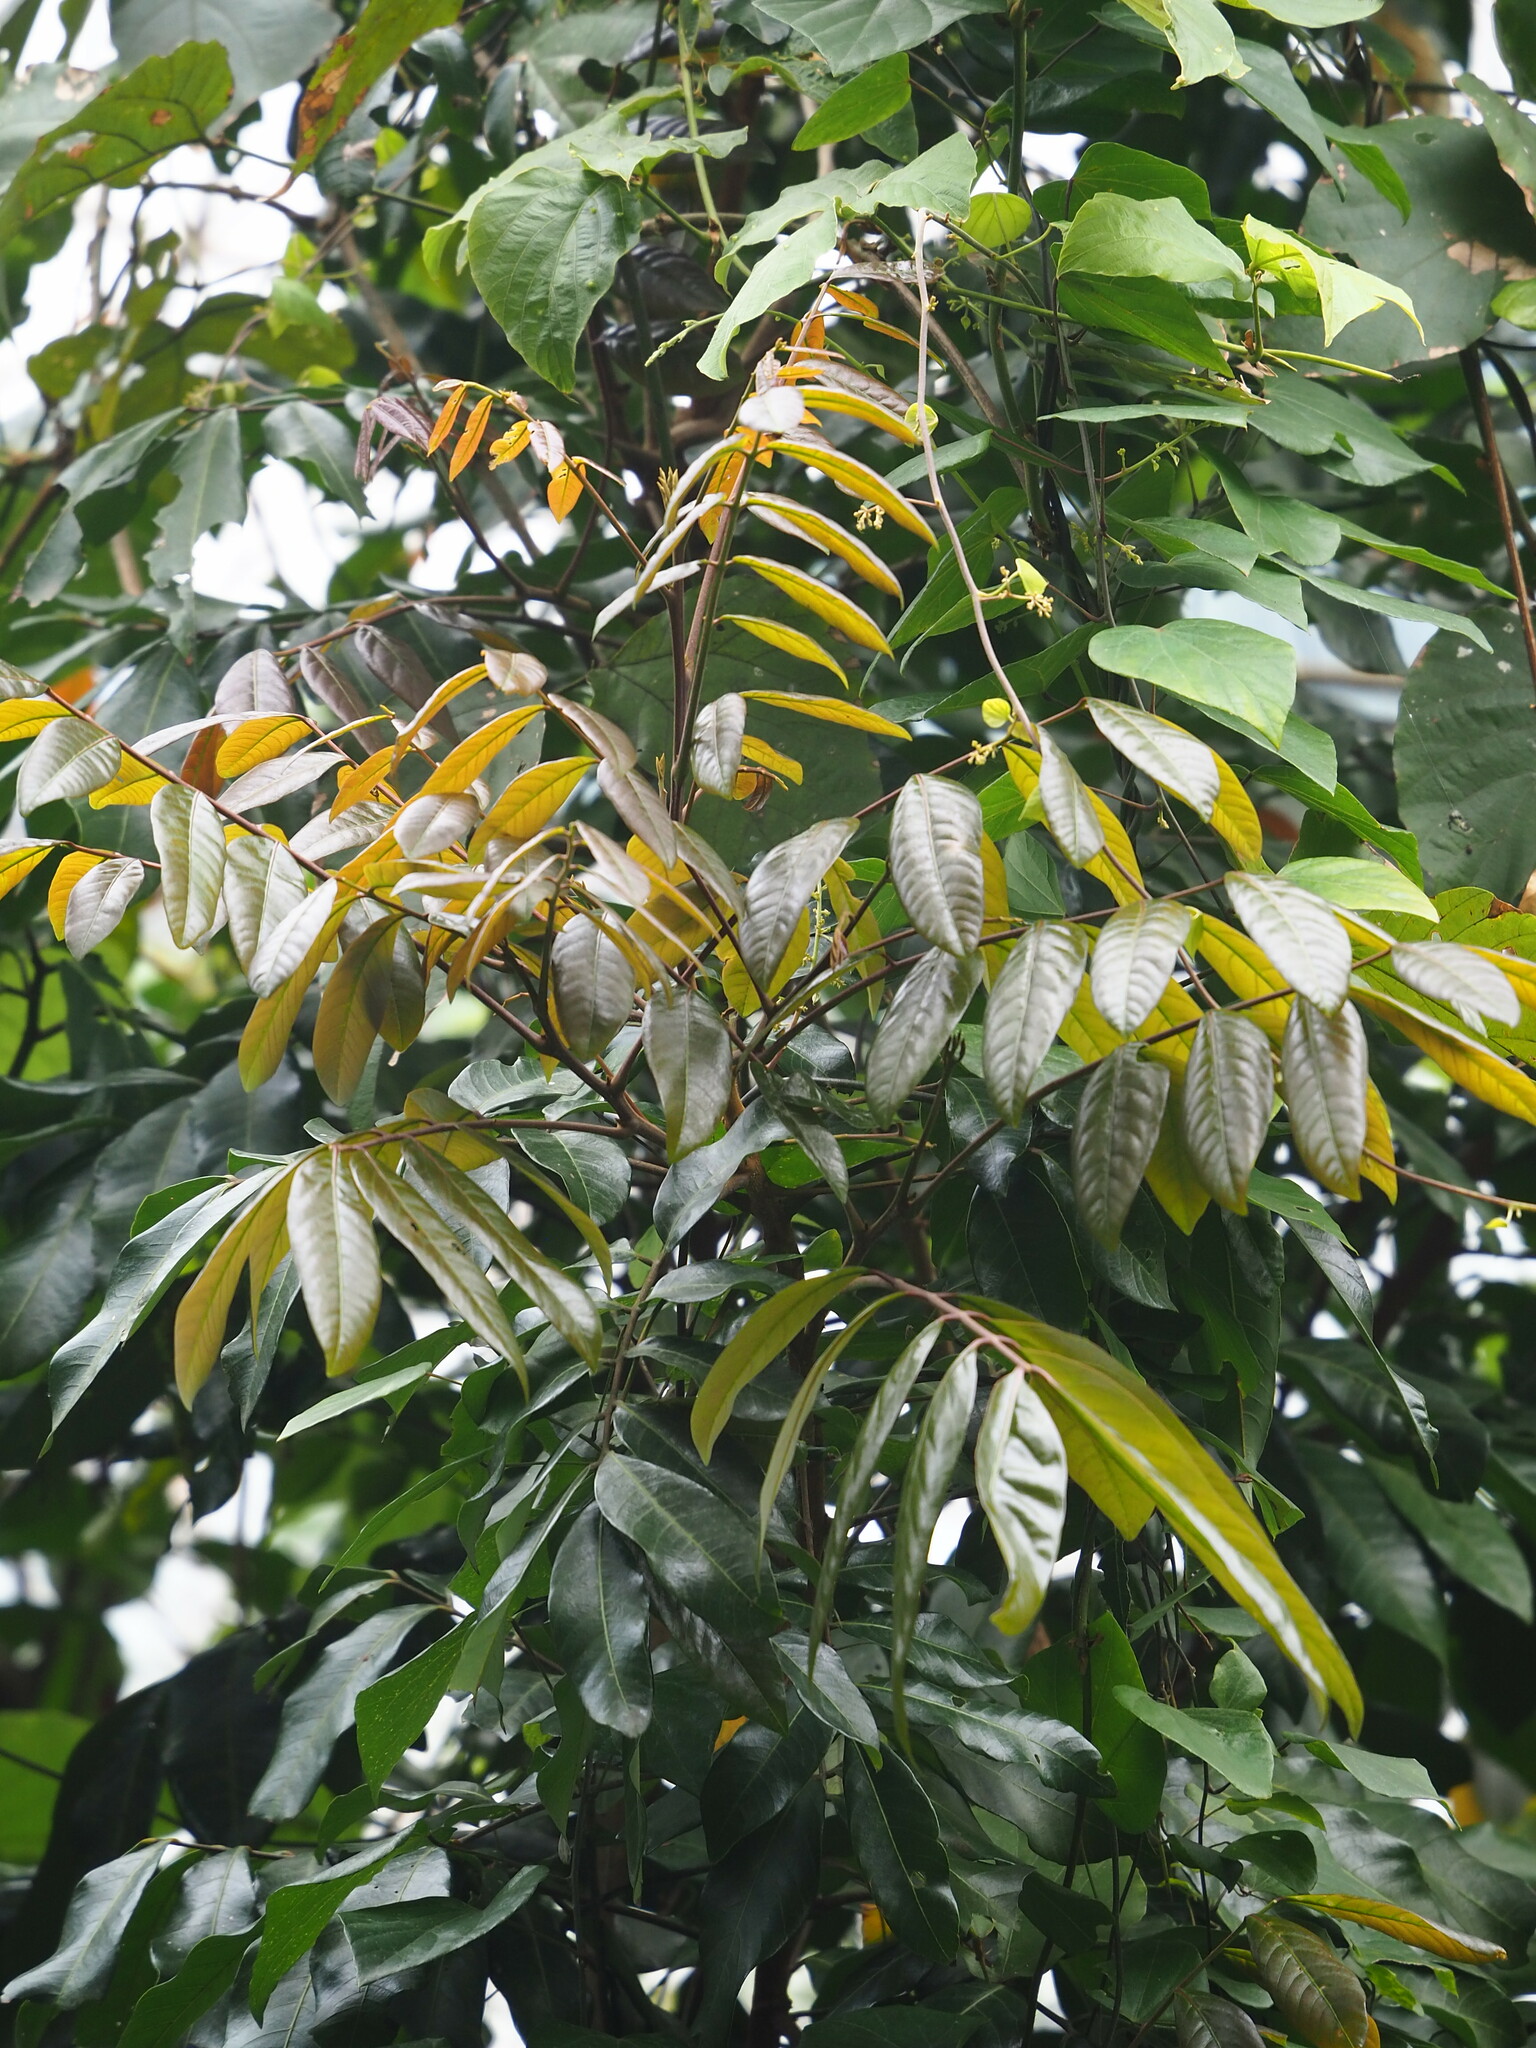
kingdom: Plantae
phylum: Tracheophyta
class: Magnoliopsida
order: Sapindales
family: Sapindaceae
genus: Dimocarpus
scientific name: Dimocarpus longan
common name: Longan
